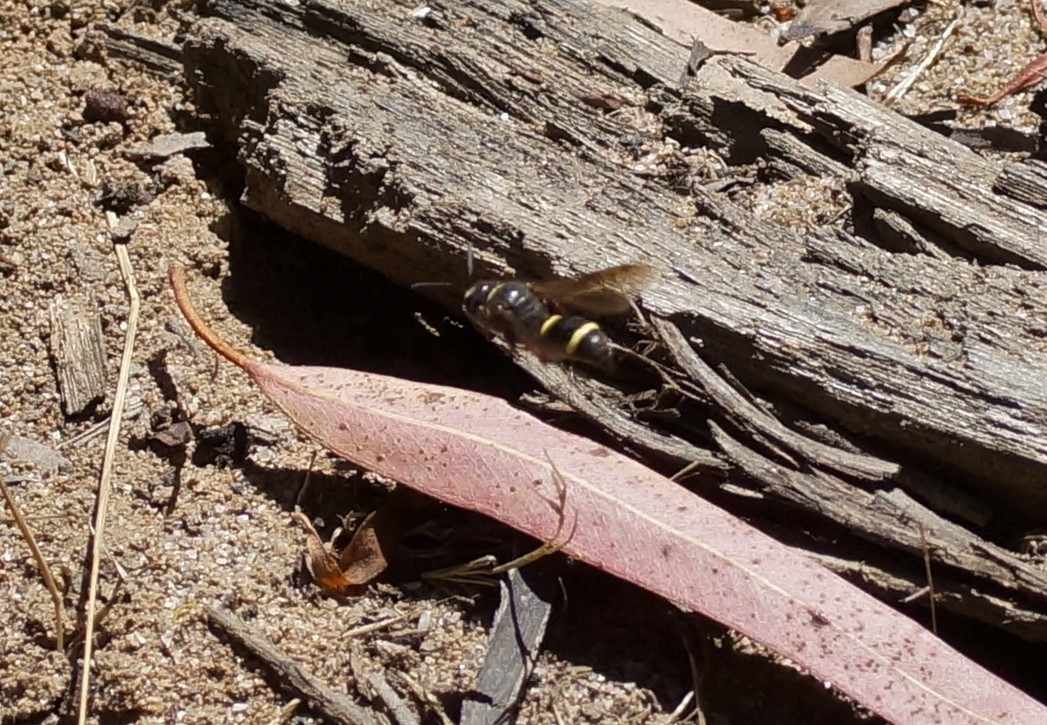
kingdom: Animalia
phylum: Arthropoda
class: Insecta
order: Hymenoptera
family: Crabronidae
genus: Austrogorytes
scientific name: Austrogorytes bellicosus
